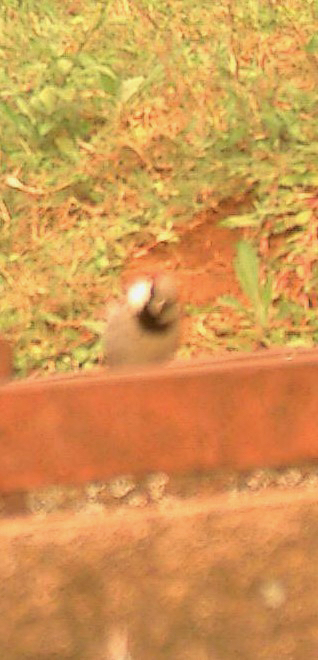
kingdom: Animalia
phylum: Chordata
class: Aves
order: Passeriformes
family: Paridae
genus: Parus
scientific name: Parus cinereus
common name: Cinereous tit
